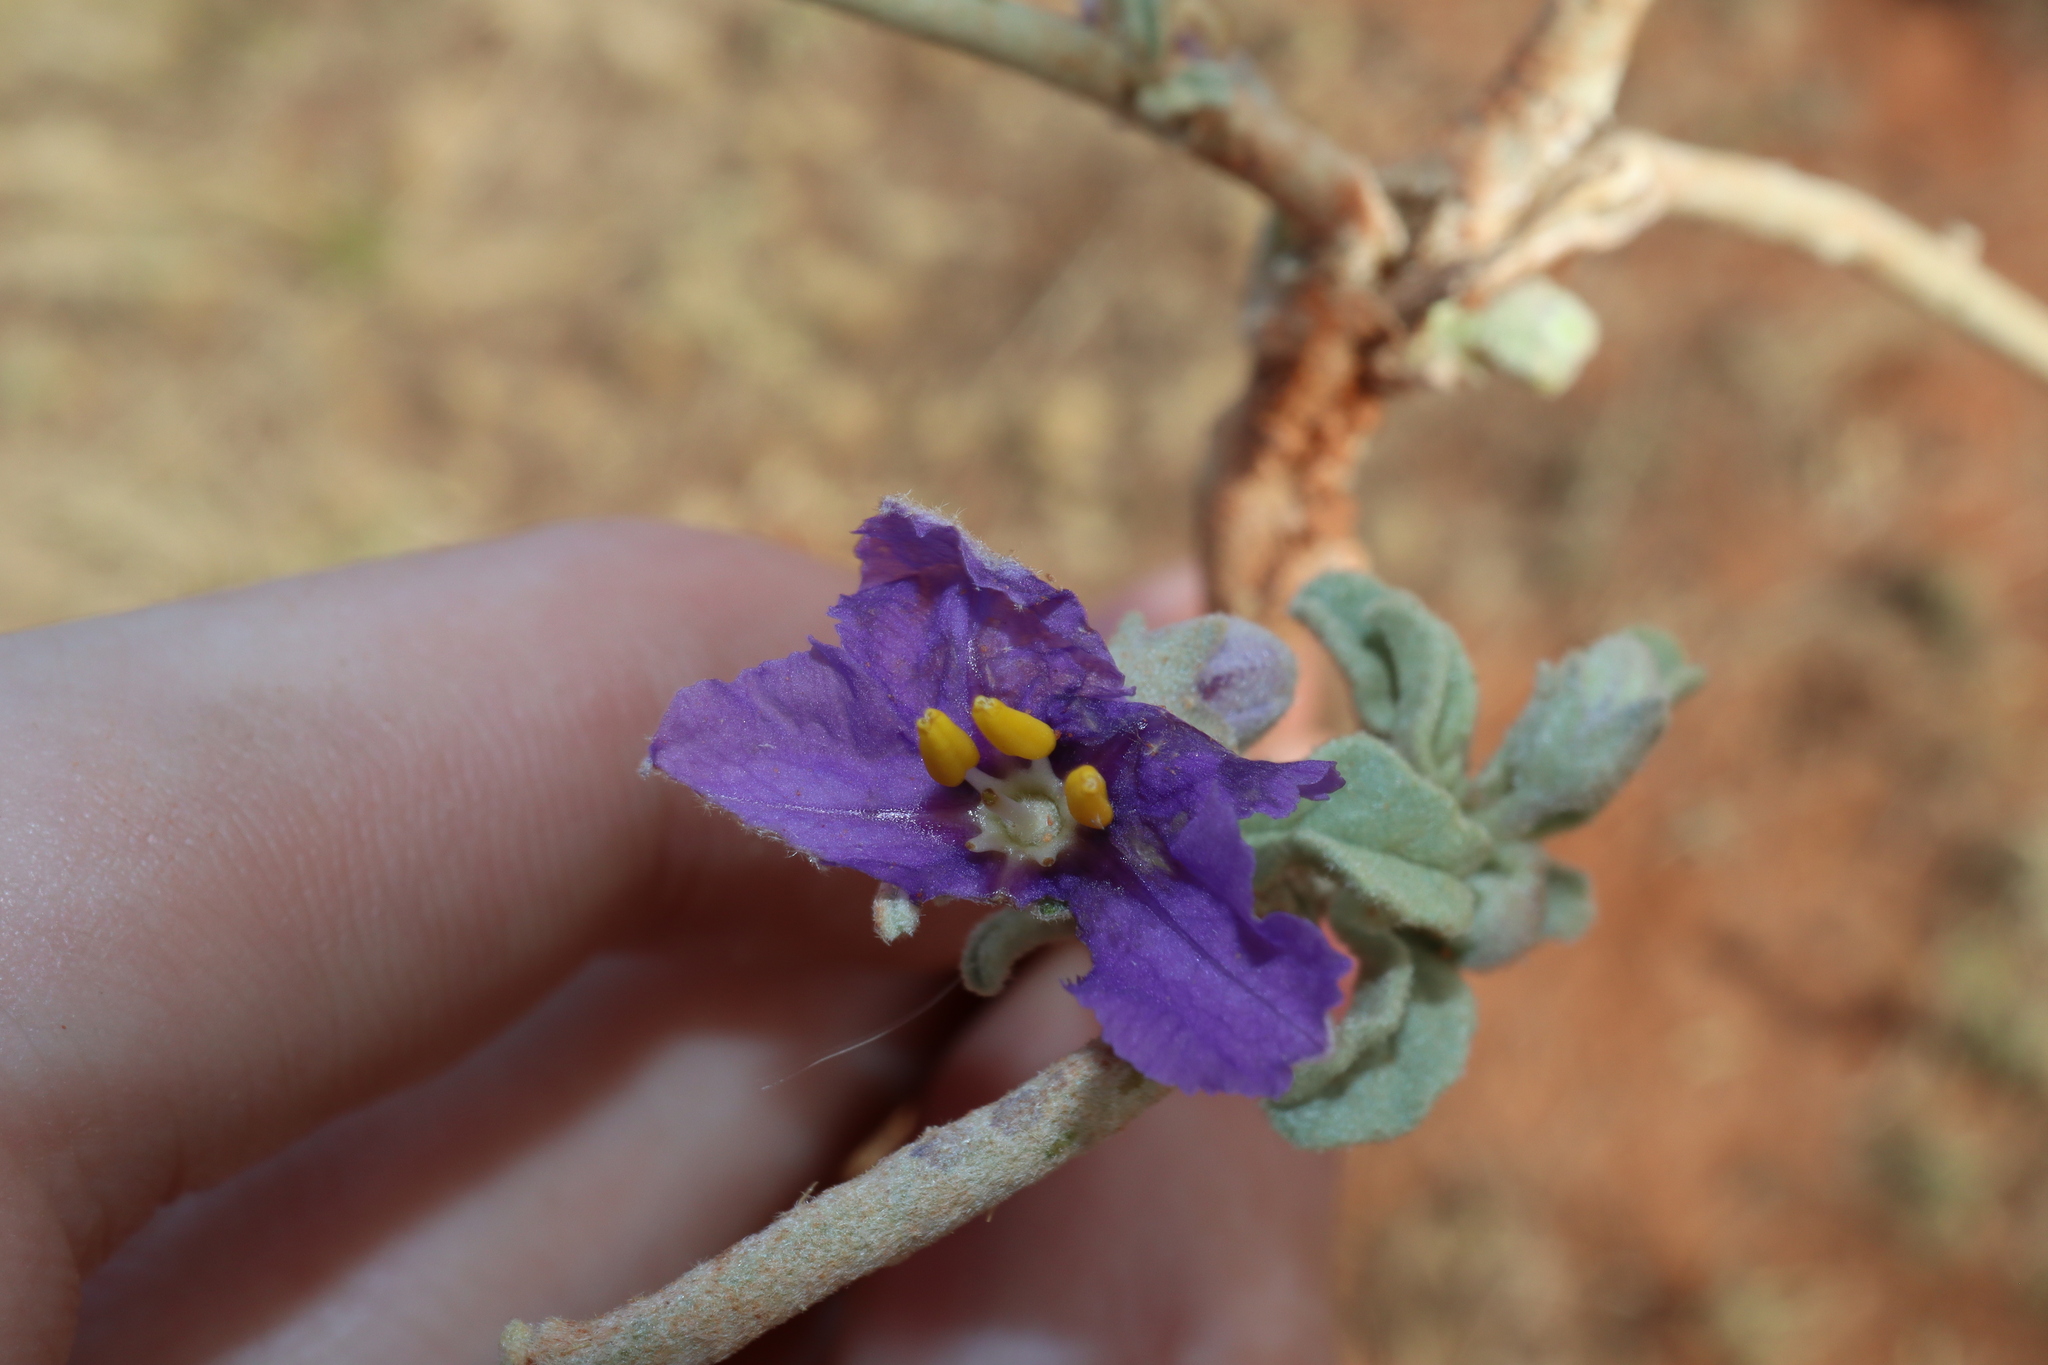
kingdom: Plantae
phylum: Tracheophyta
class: Magnoliopsida
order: Solanales
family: Solanaceae
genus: Solanum
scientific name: Solanum esuriale
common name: Wild tomato
